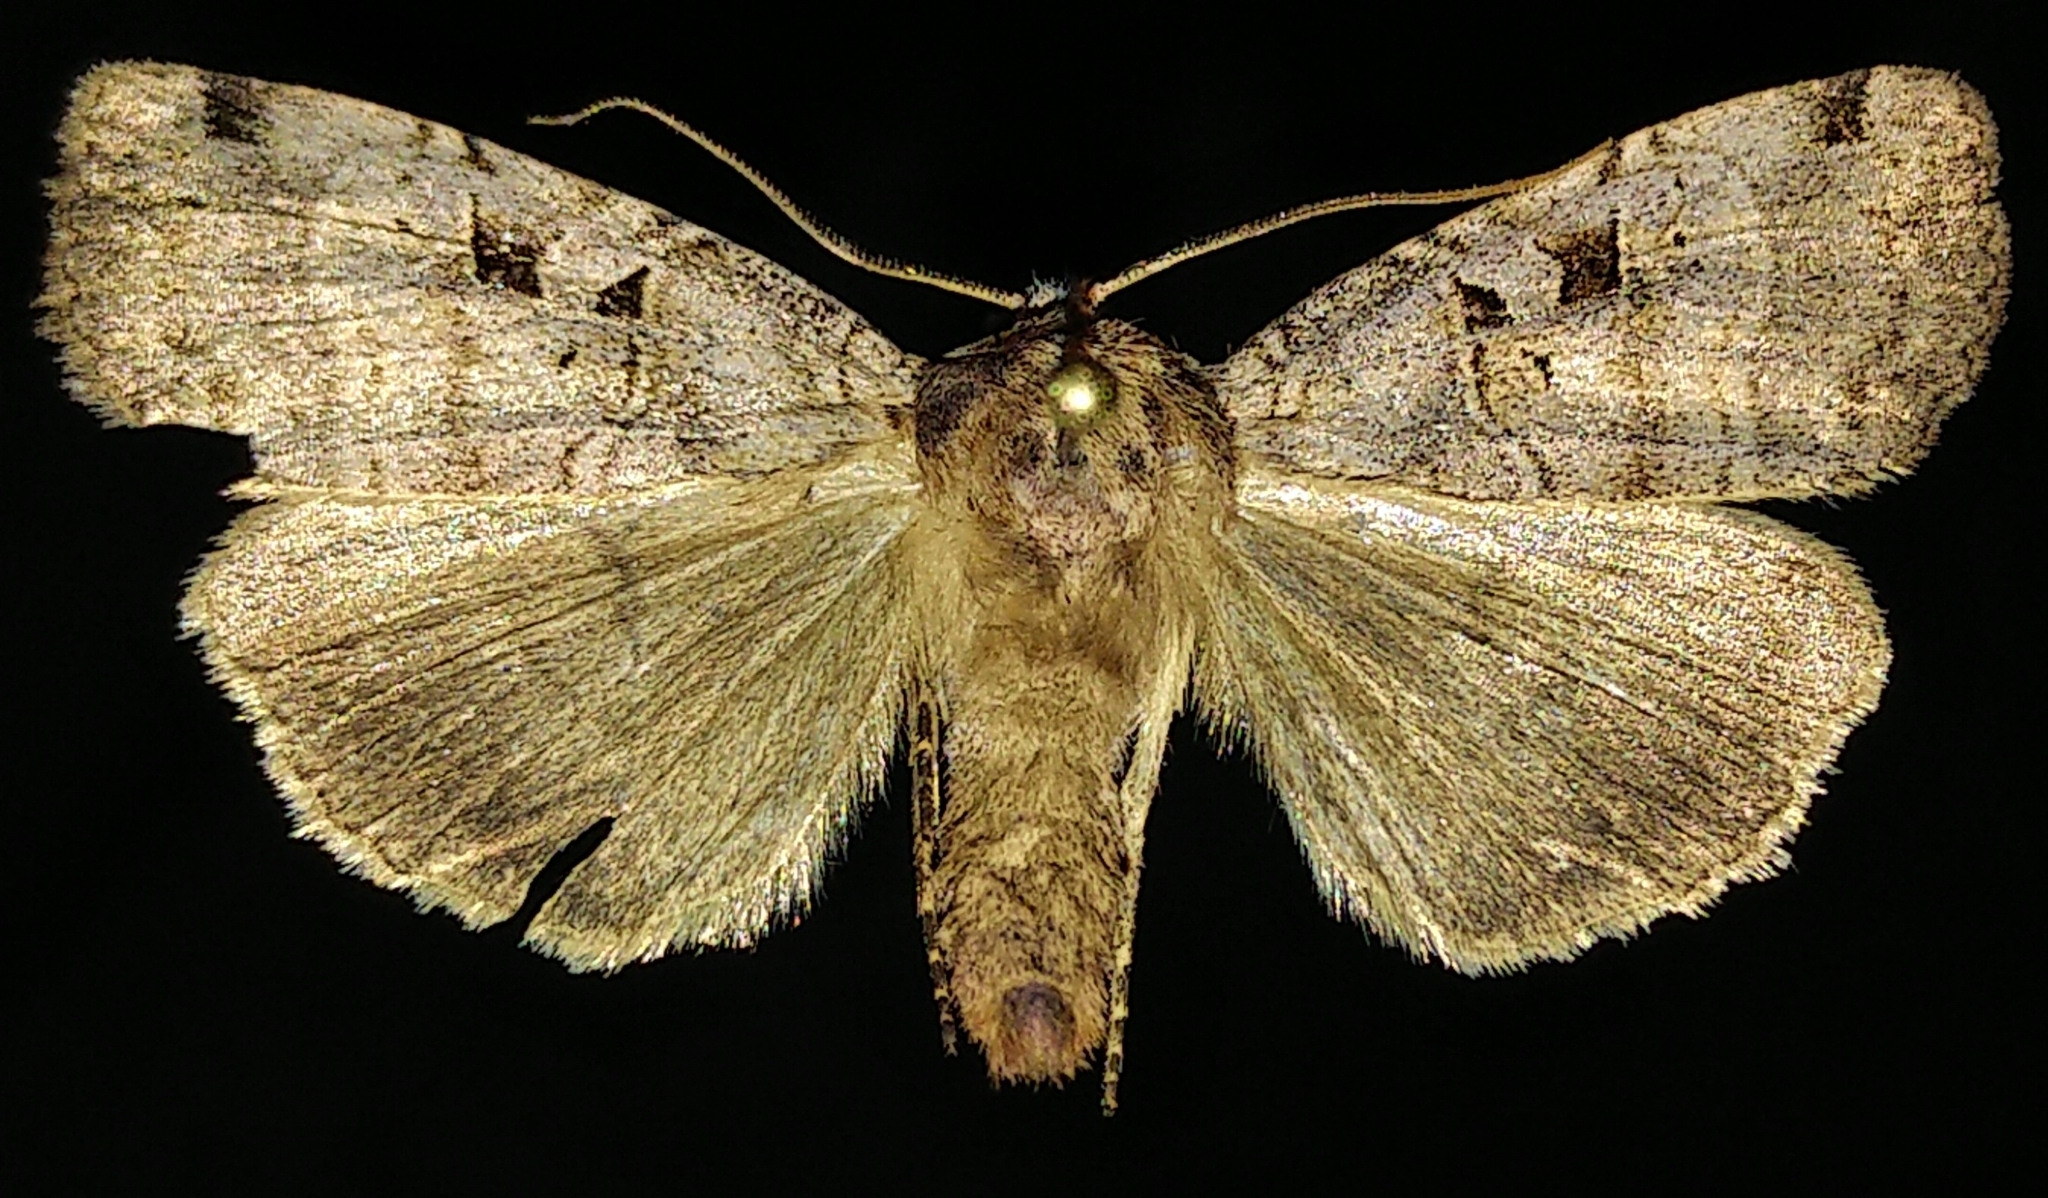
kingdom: Animalia
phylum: Arthropoda
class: Insecta
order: Lepidoptera
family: Noctuidae
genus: Xestia
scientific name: Xestia normaniana
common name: Norman's dart moth
